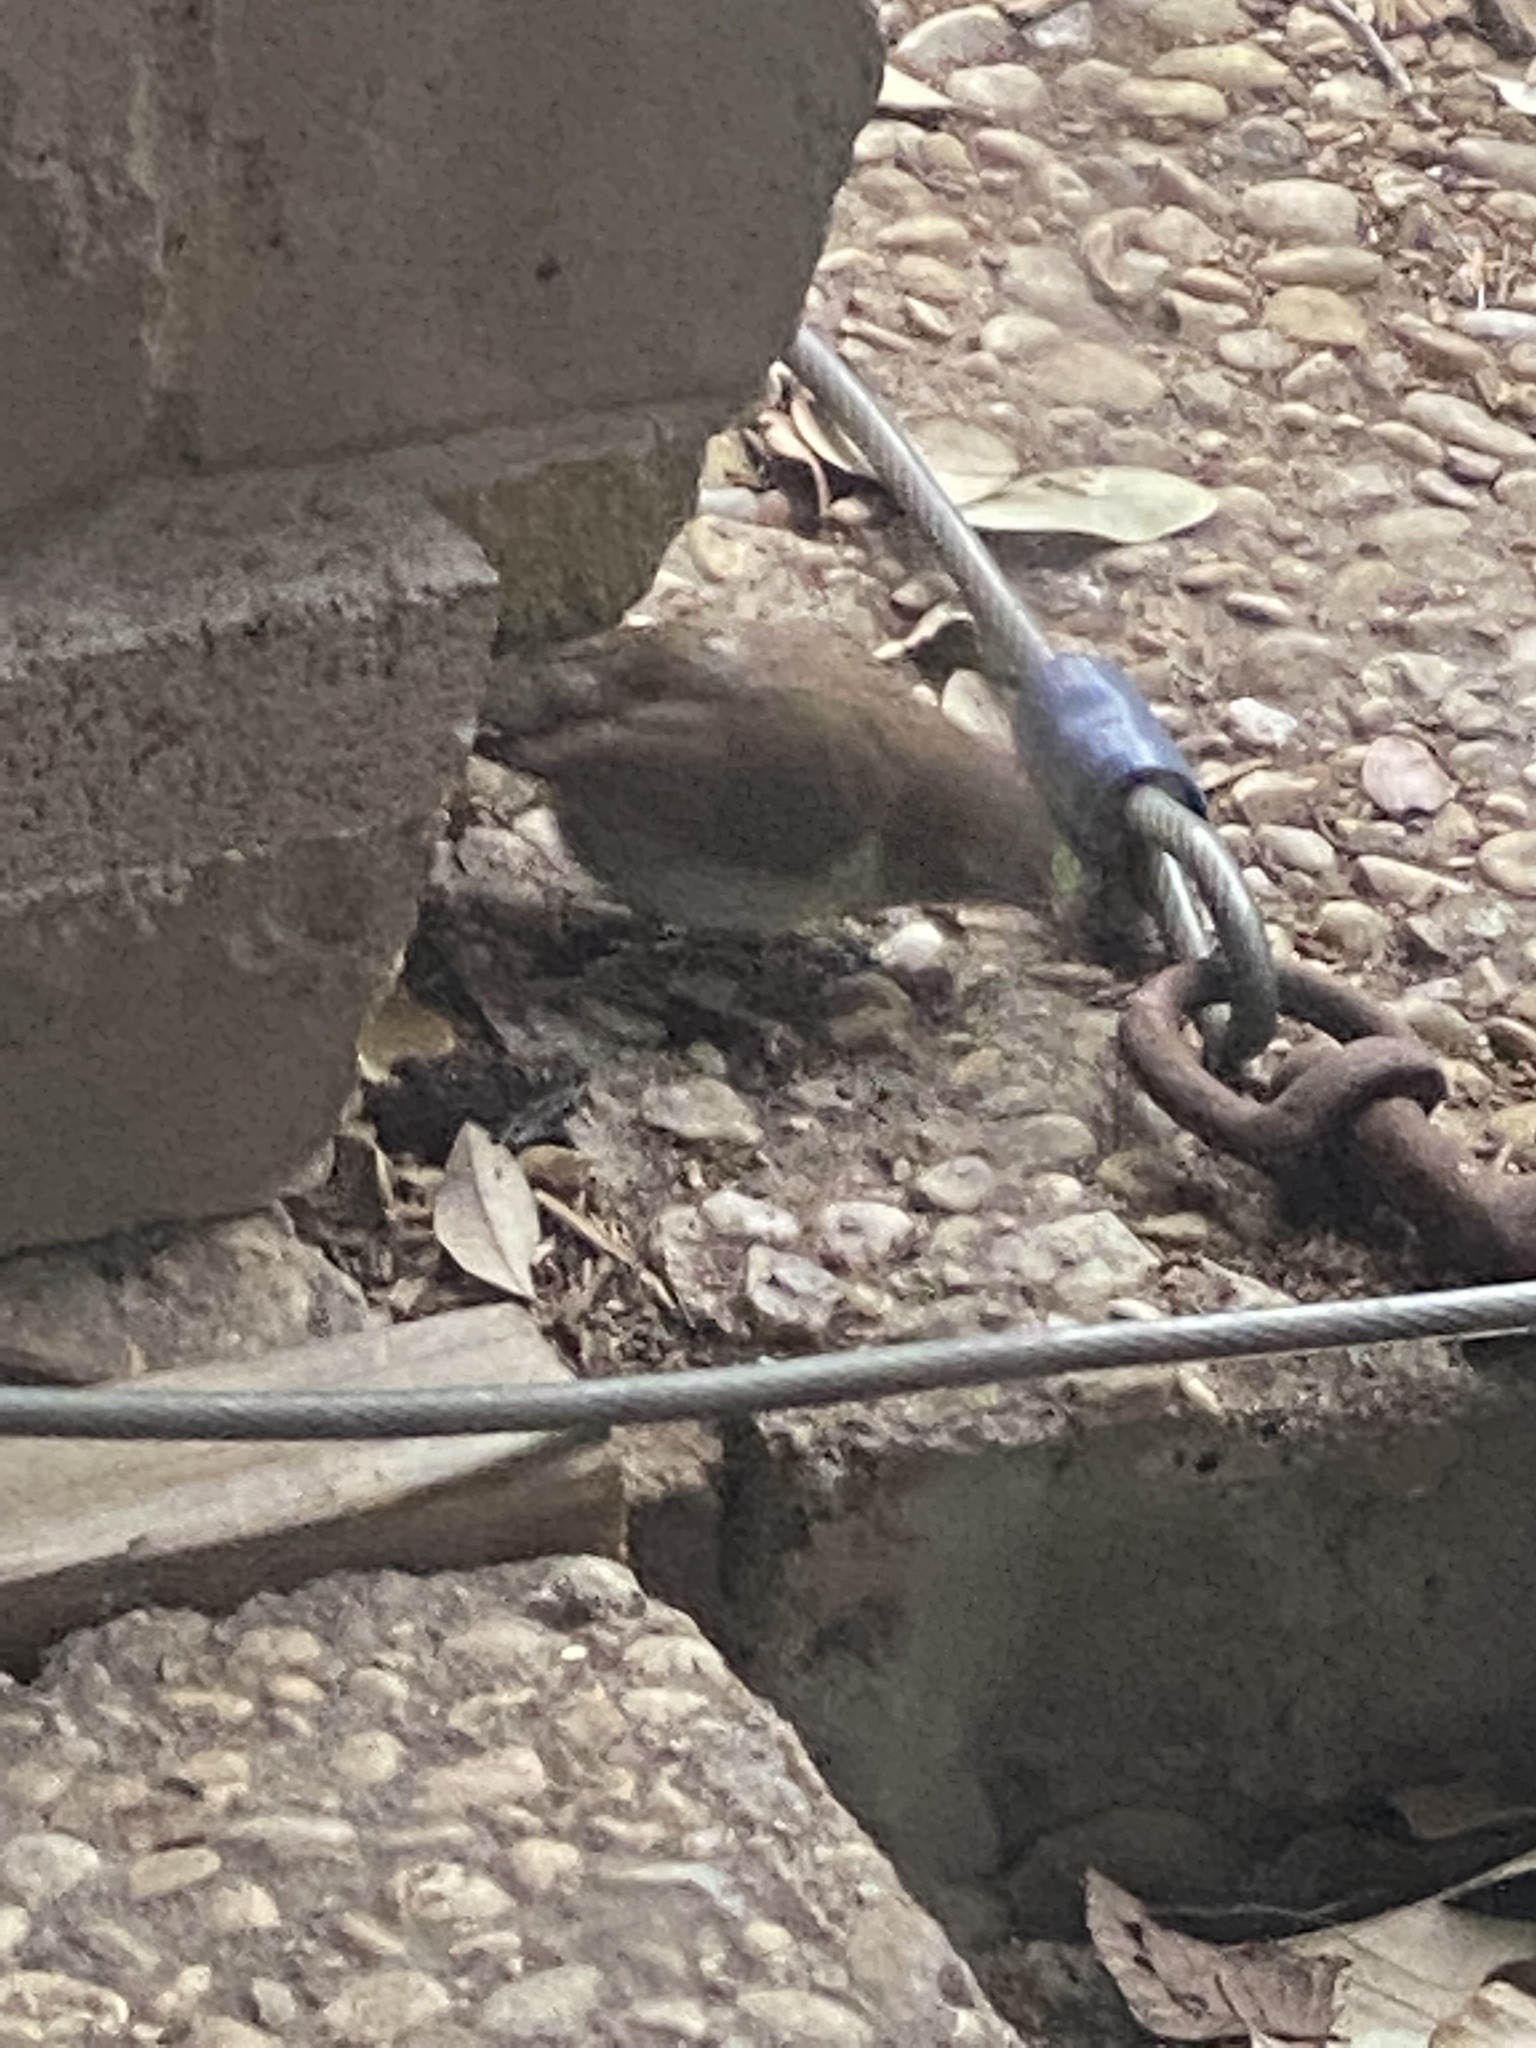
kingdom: Animalia
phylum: Chordata
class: Aves
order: Passeriformes
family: Troglodytidae
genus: Thryomanes
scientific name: Thryomanes bewickii
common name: Bewick's wren
